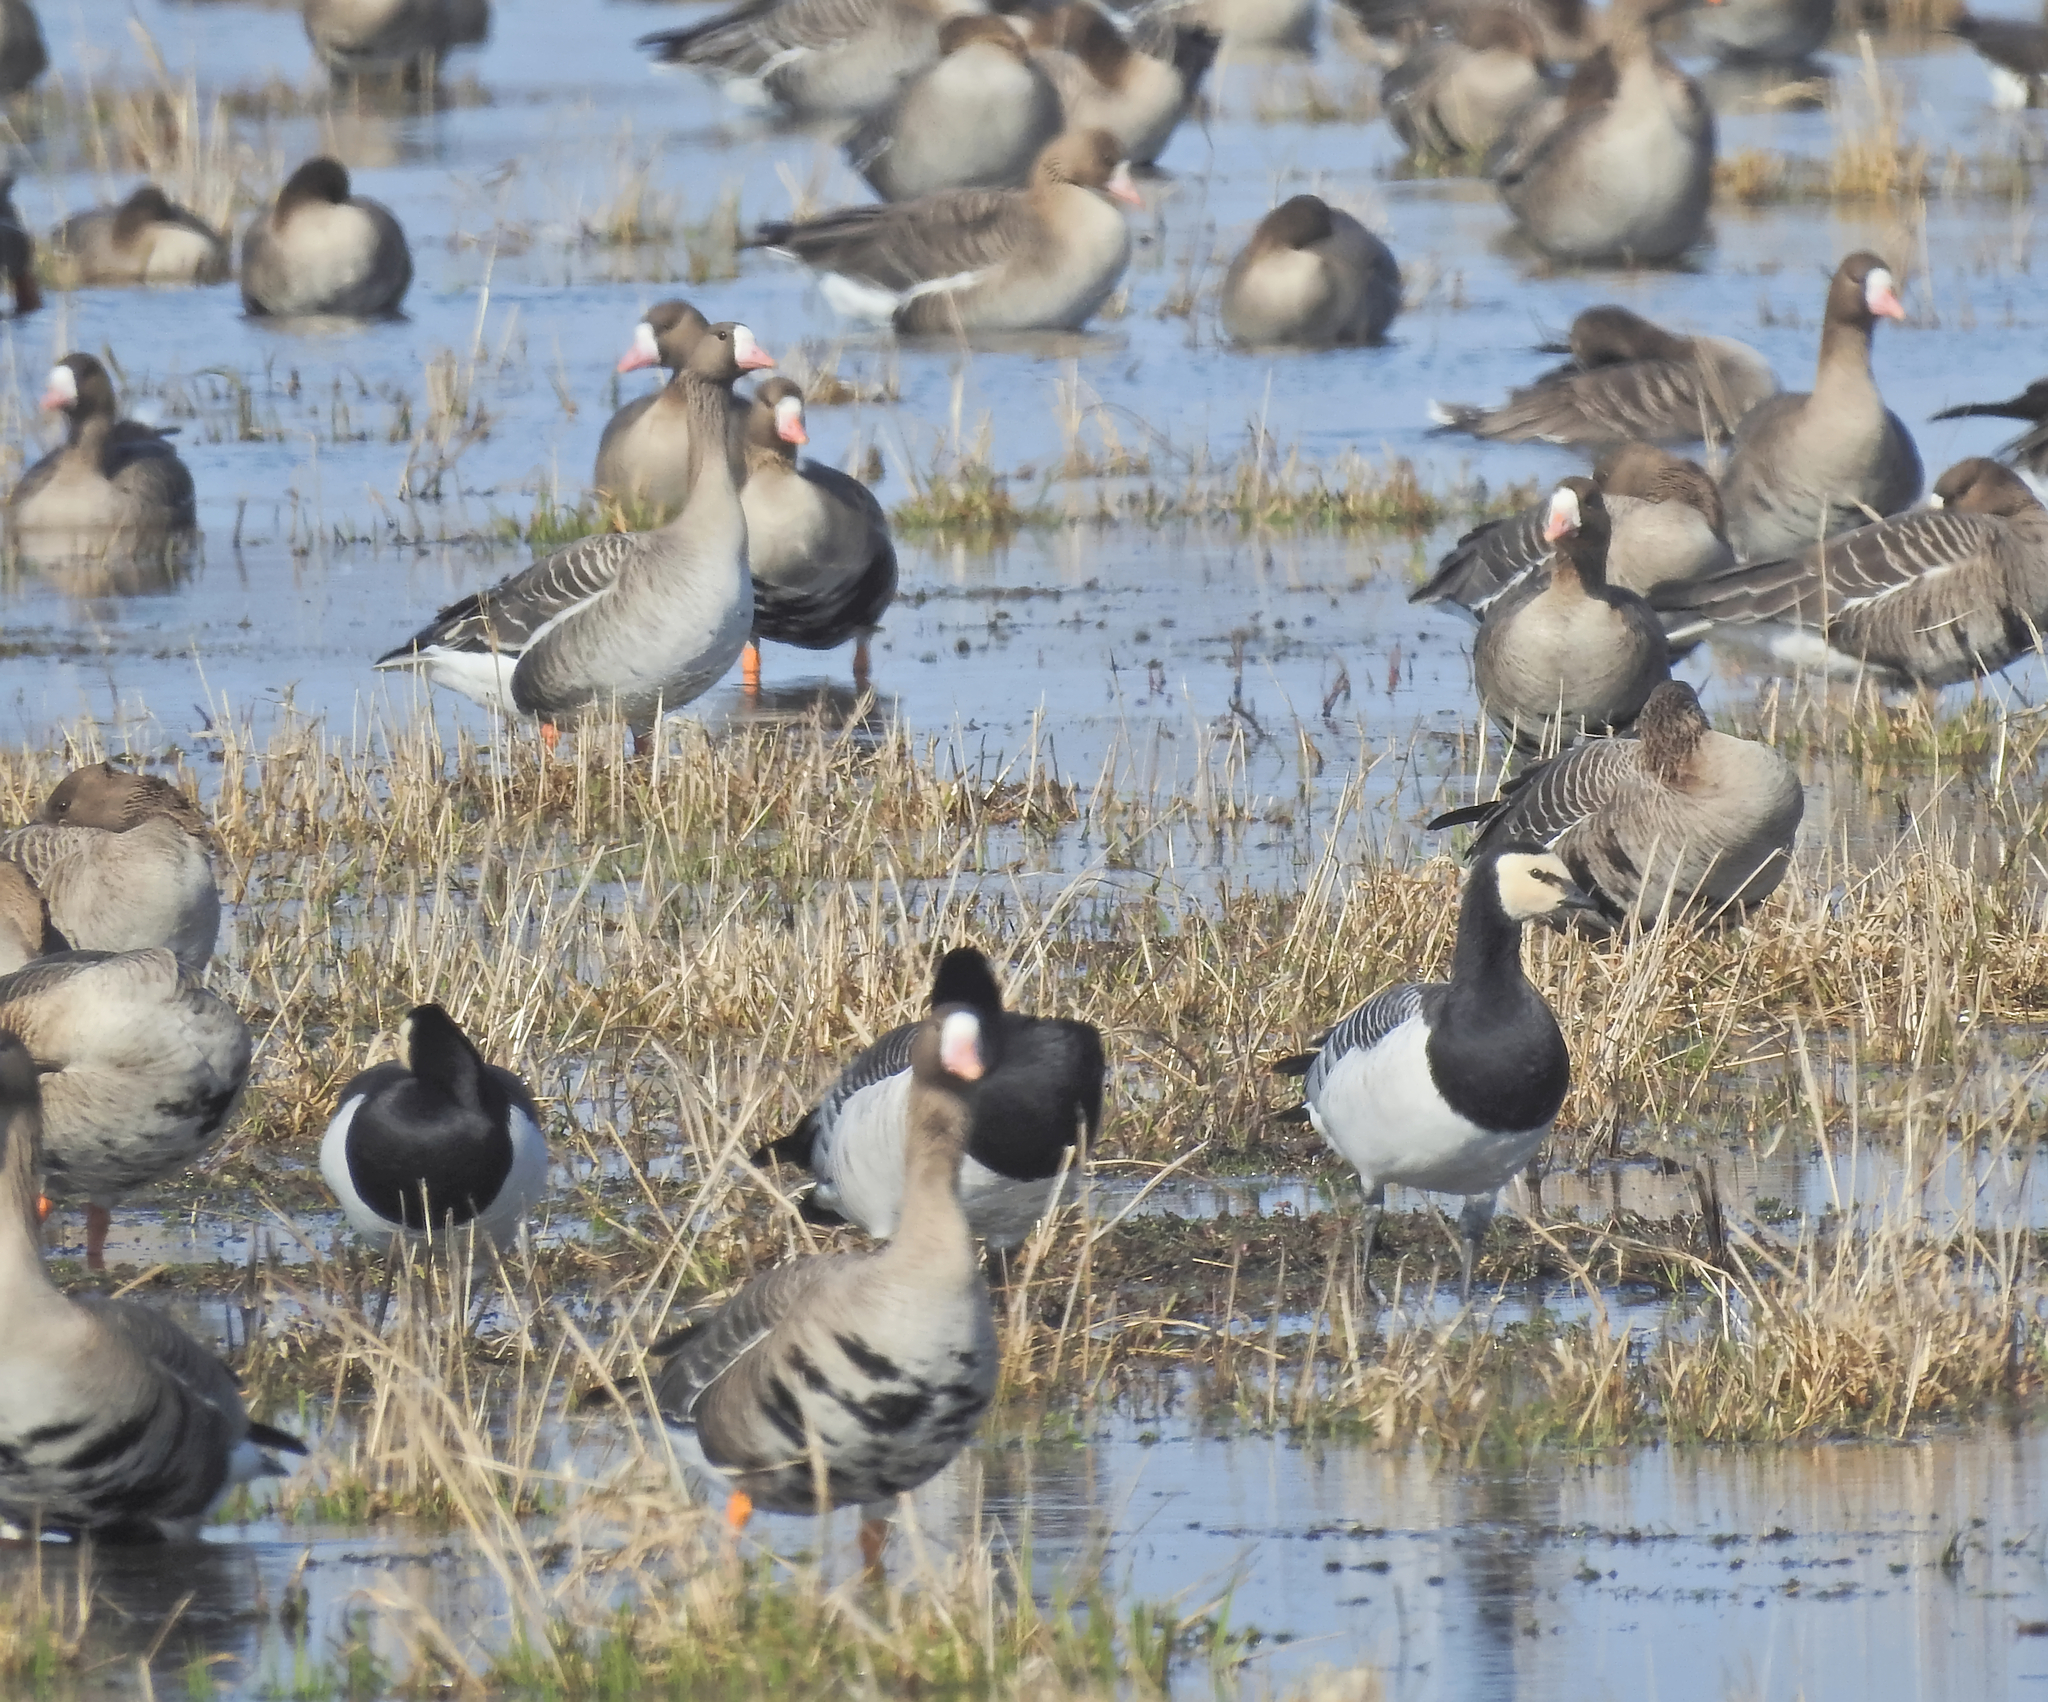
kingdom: Animalia
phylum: Chordata
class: Aves
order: Anseriformes
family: Anatidae
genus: Anser
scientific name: Anser albifrons
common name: Greater white-fronted goose
